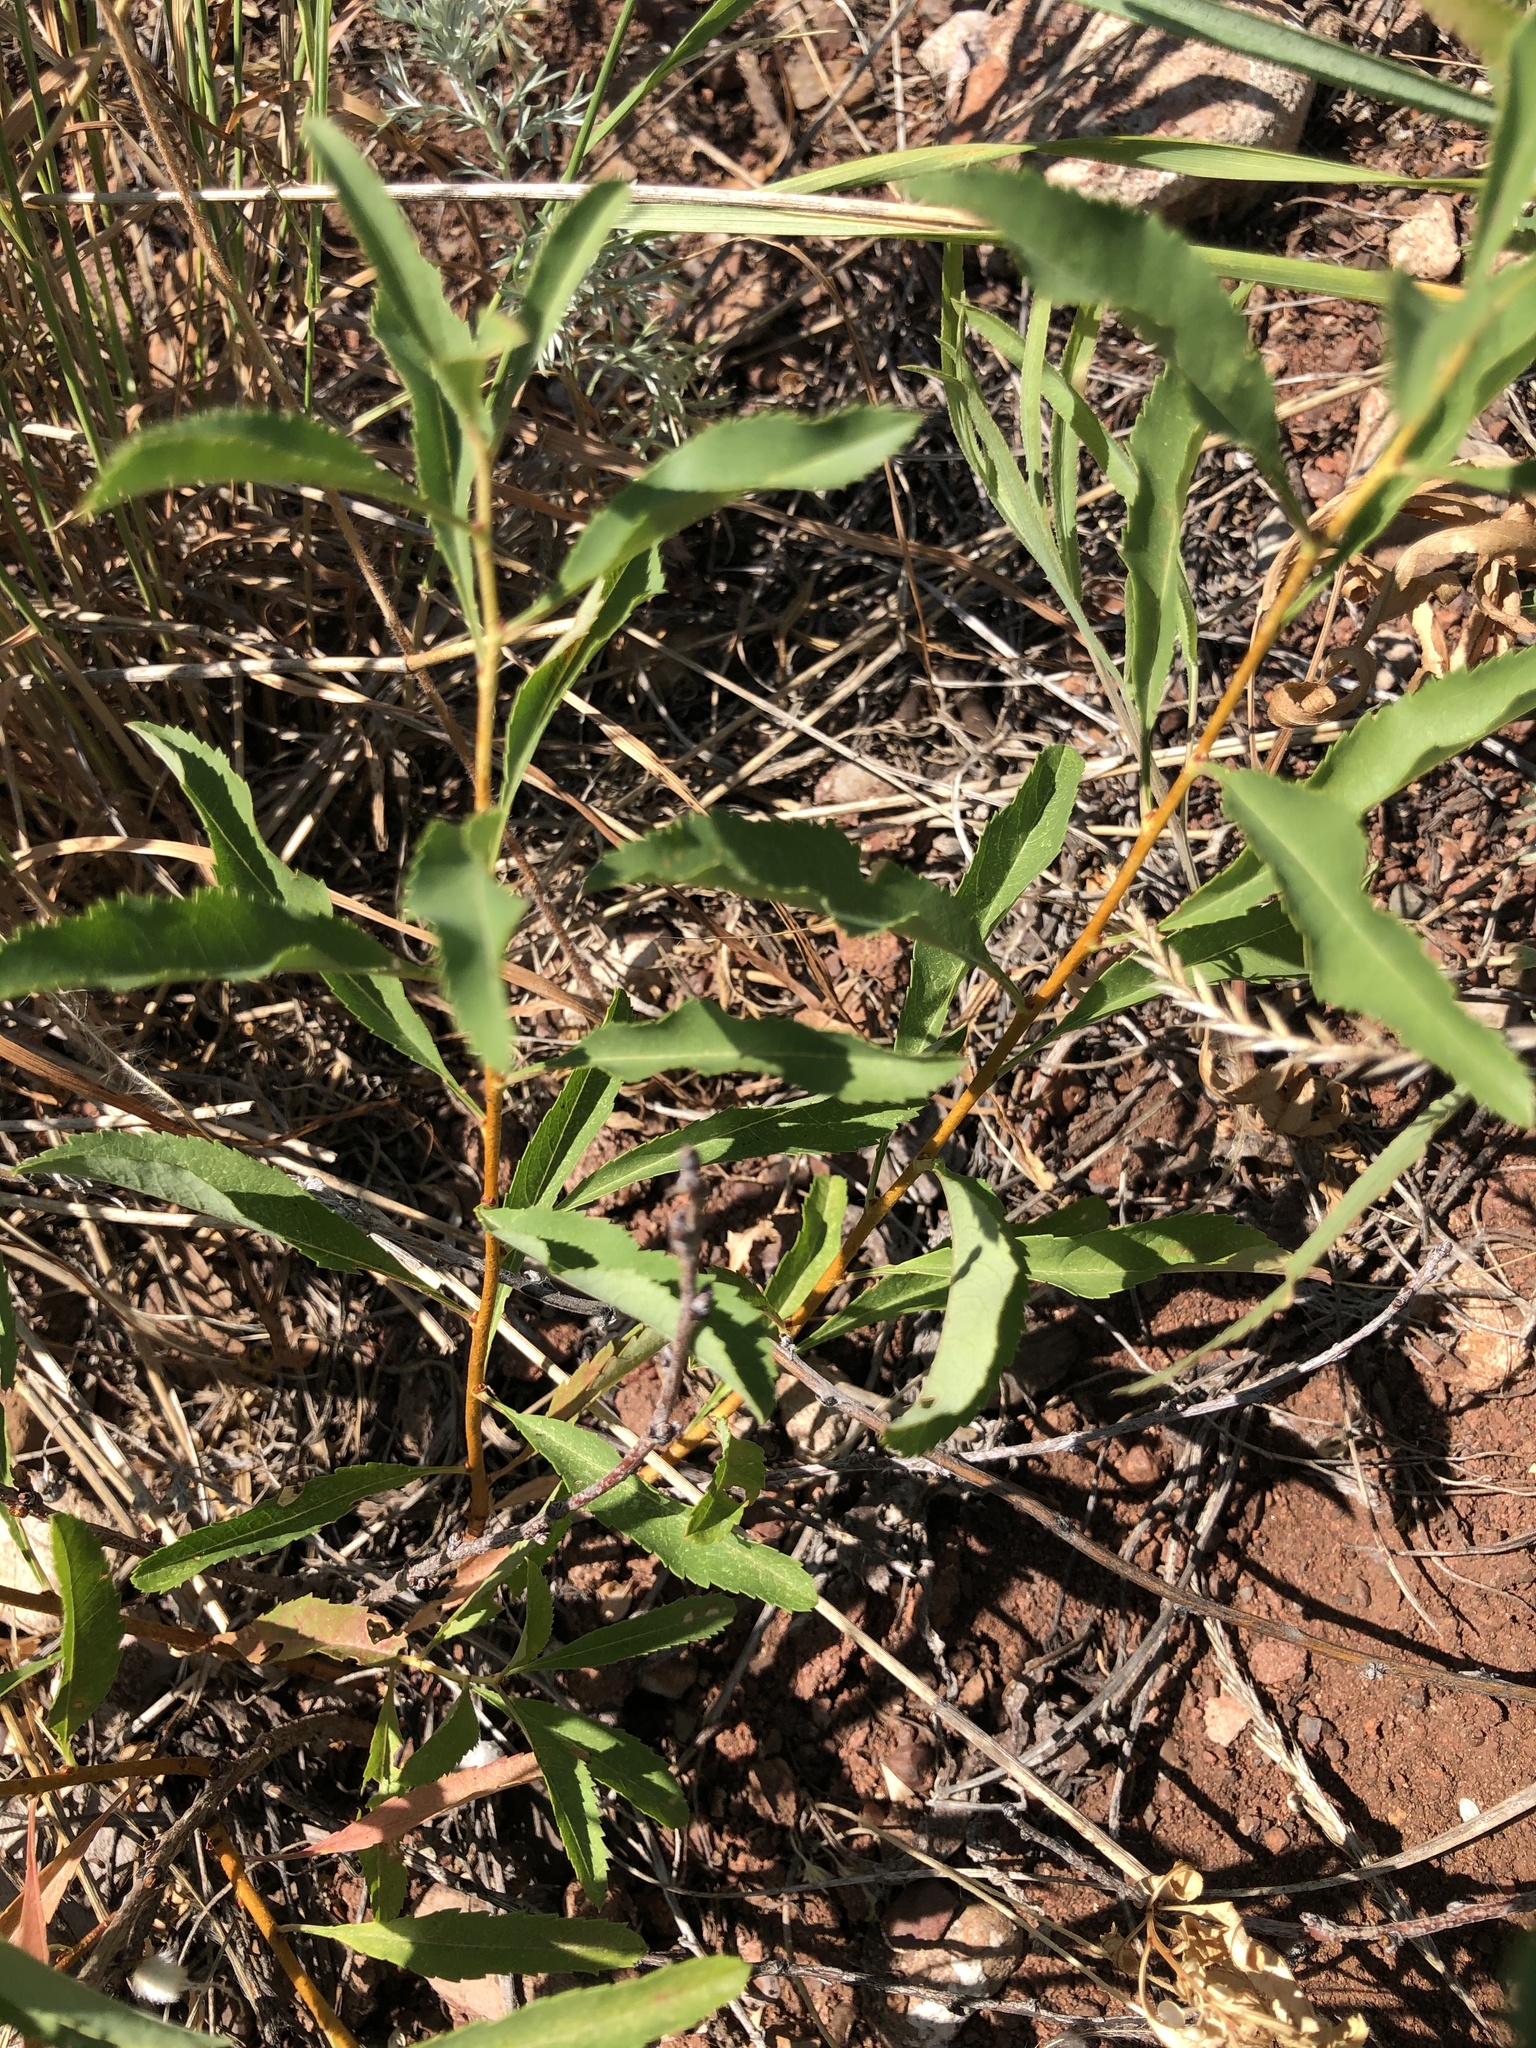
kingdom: Plantae
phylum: Tracheophyta
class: Magnoliopsida
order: Rosales
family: Rosaceae
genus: Prunus
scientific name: Prunus tenella
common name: Dwarf russian almond
